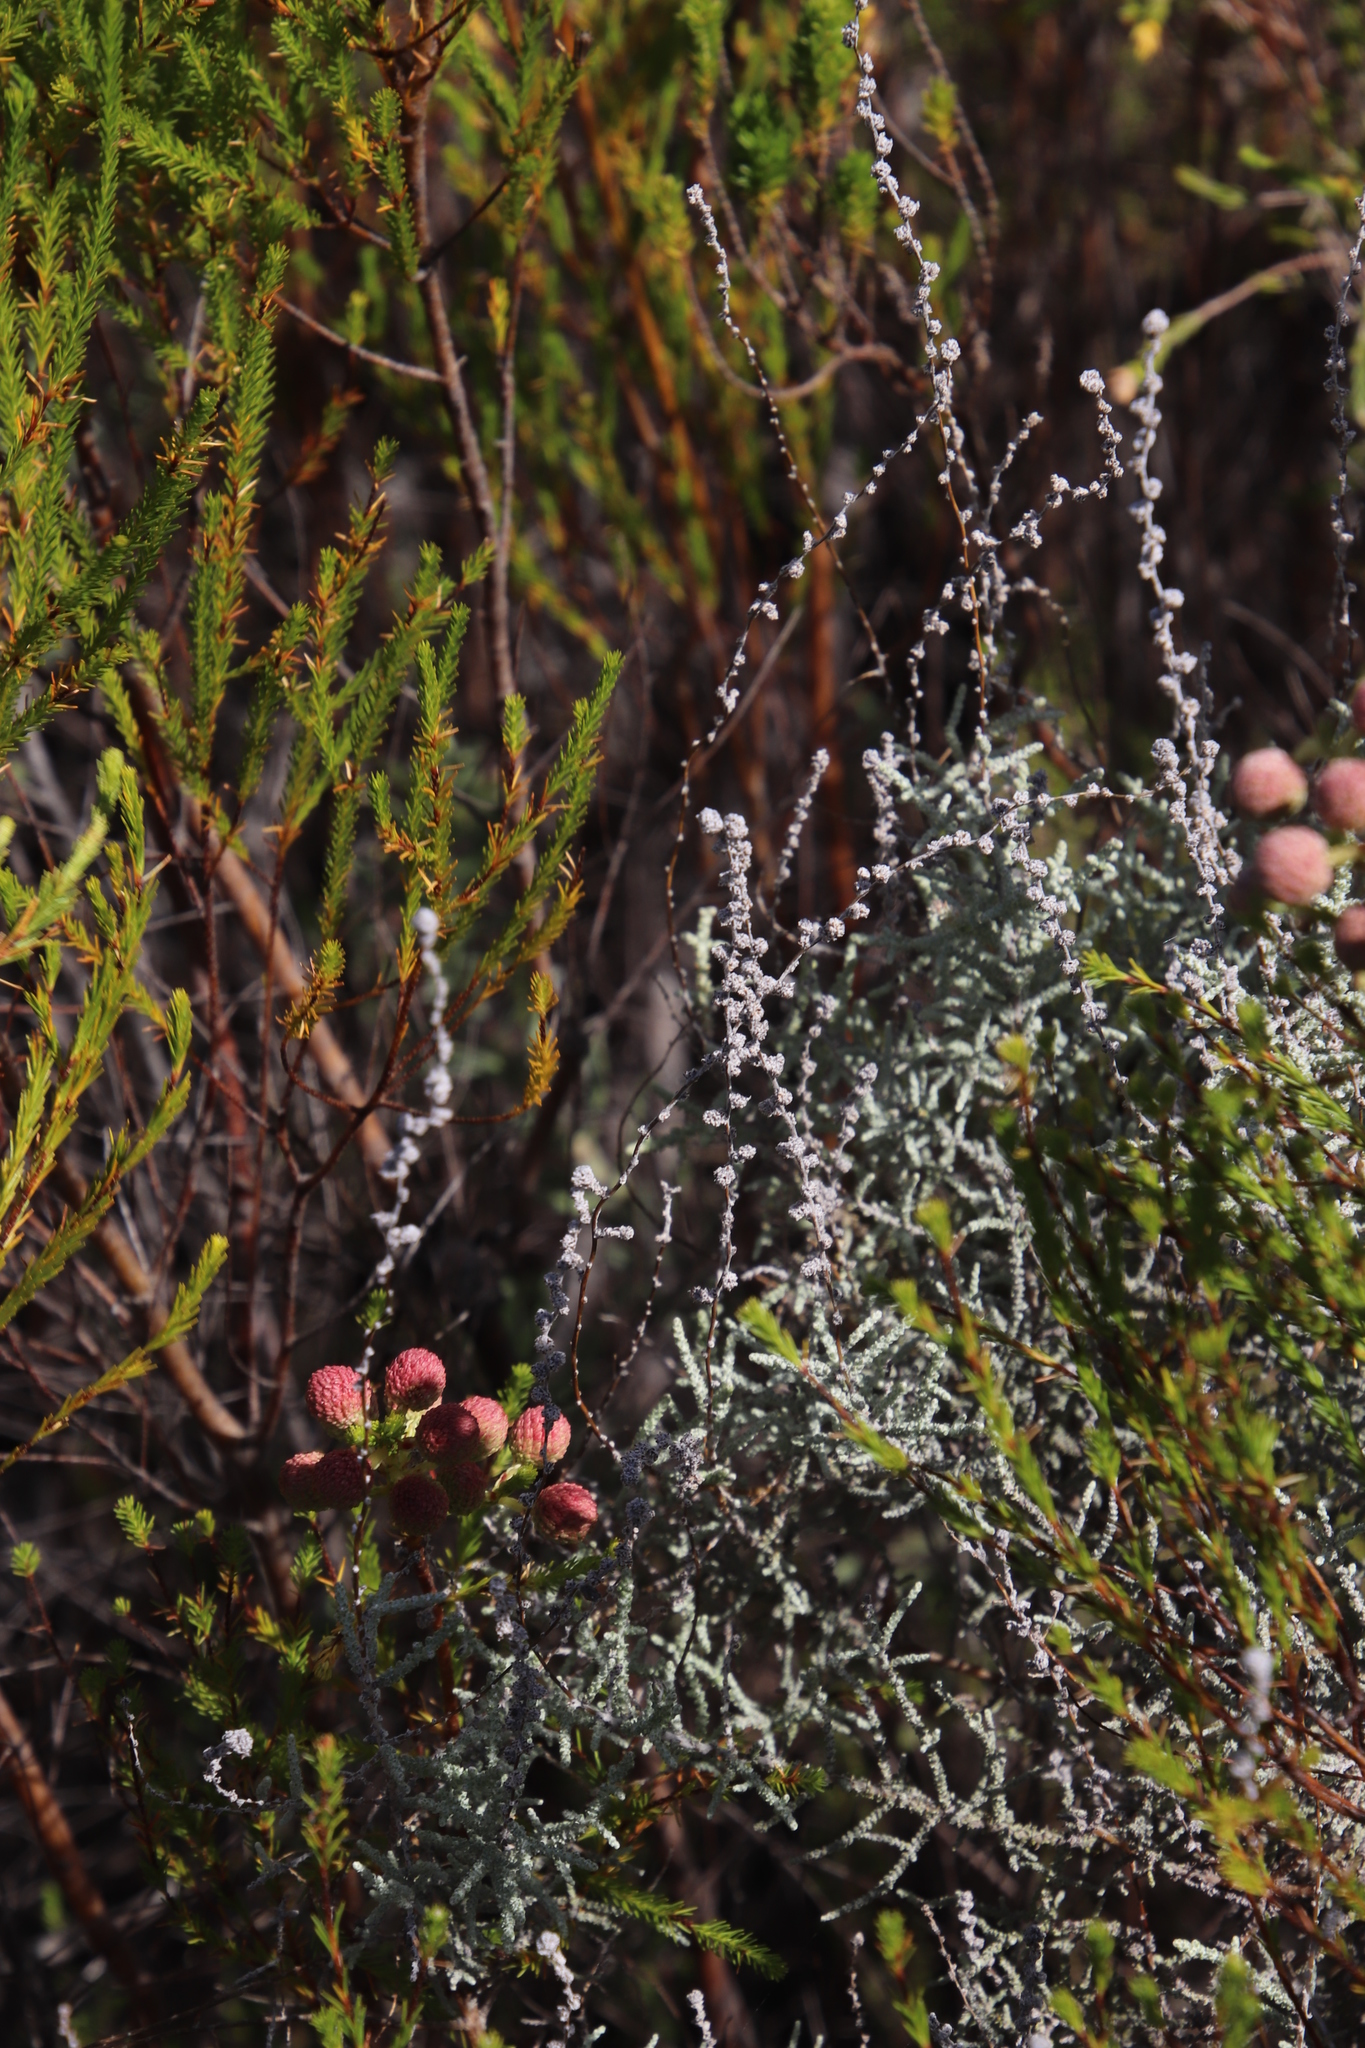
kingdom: Plantae
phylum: Tracheophyta
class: Magnoliopsida
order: Asterales
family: Asteraceae
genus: Seriphium
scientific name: Seriphium plumosum
